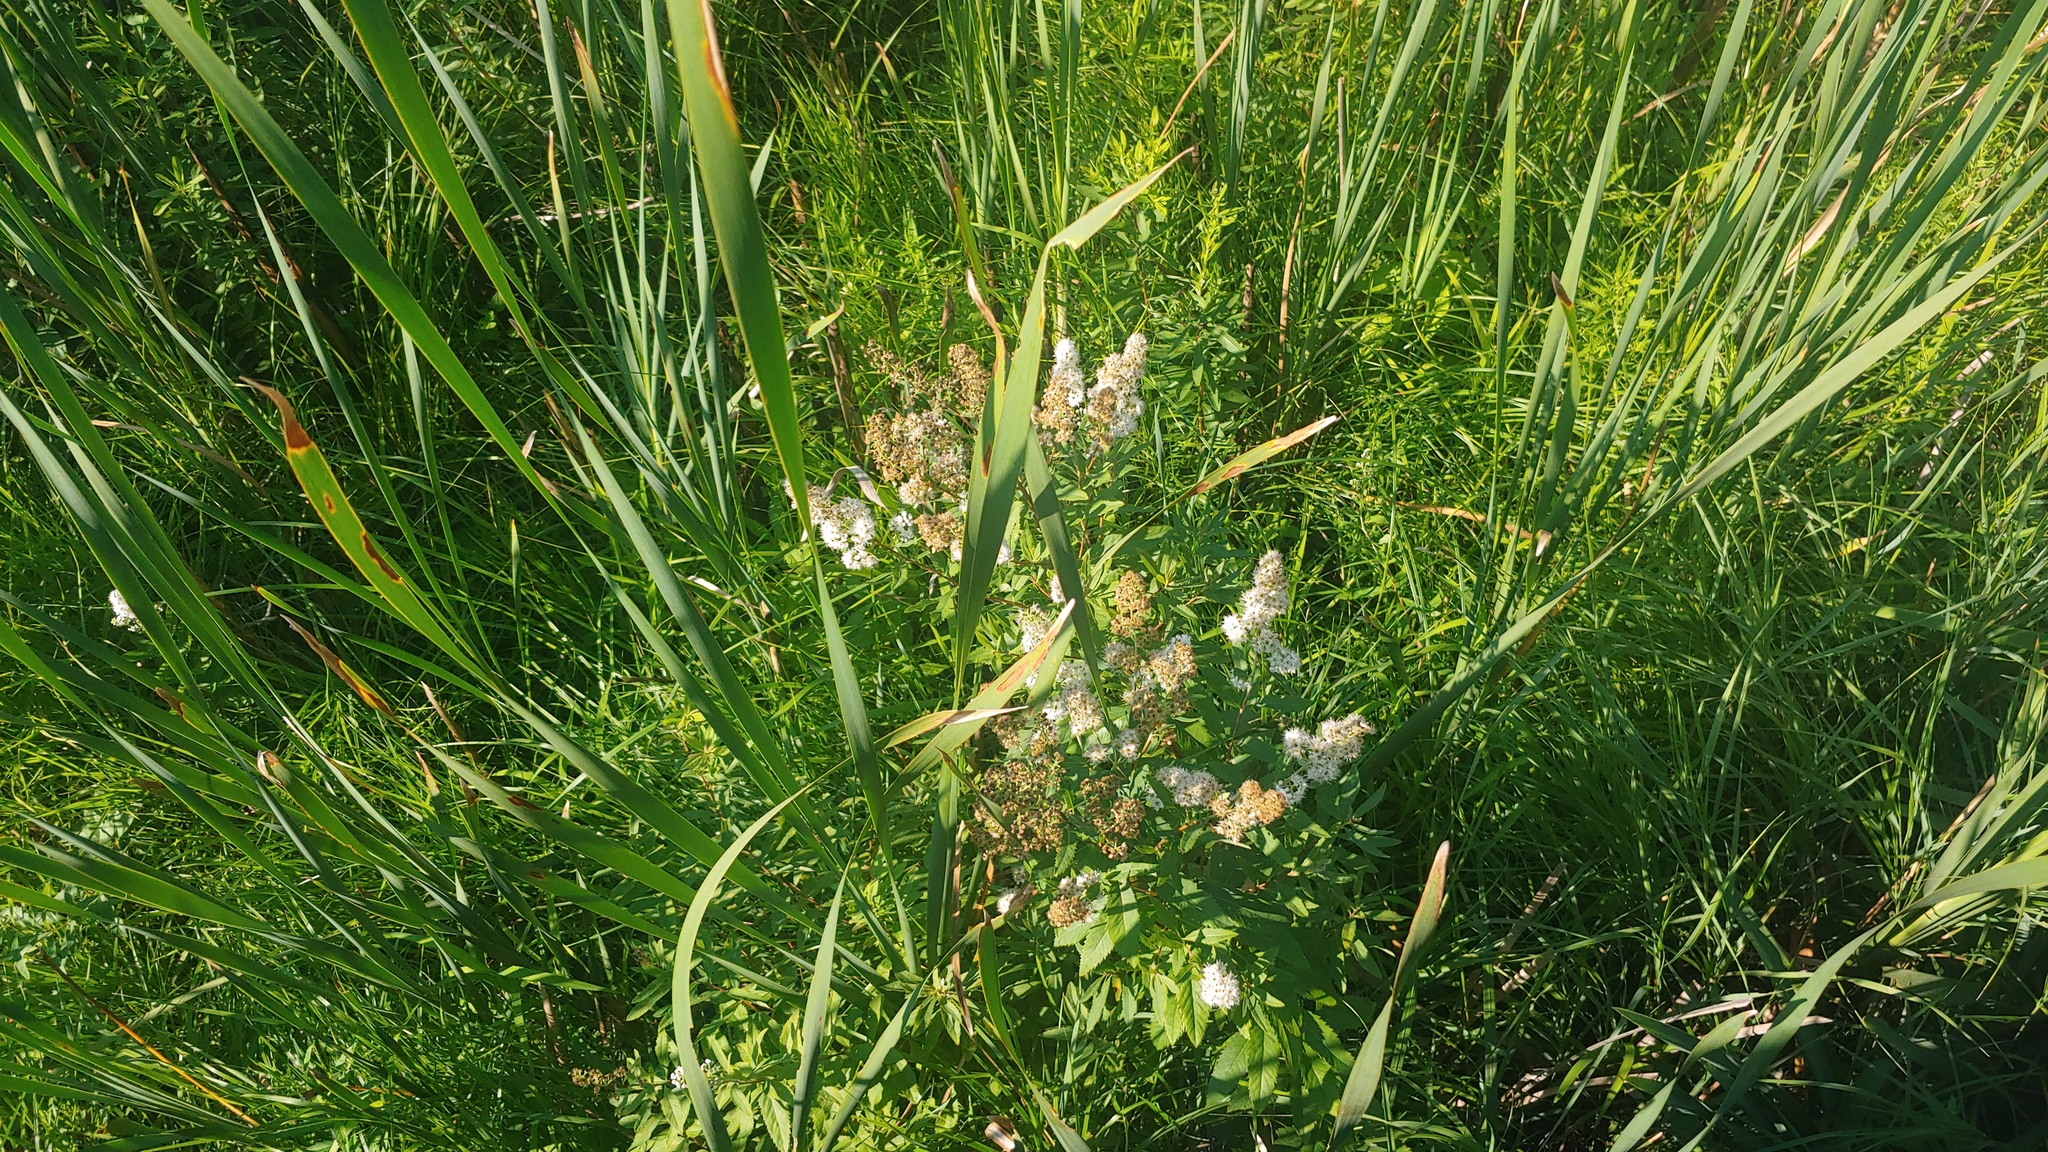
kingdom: Plantae
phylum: Tracheophyta
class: Magnoliopsida
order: Rosales
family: Rosaceae
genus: Spiraea
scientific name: Spiraea alba
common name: Pale bridewort
